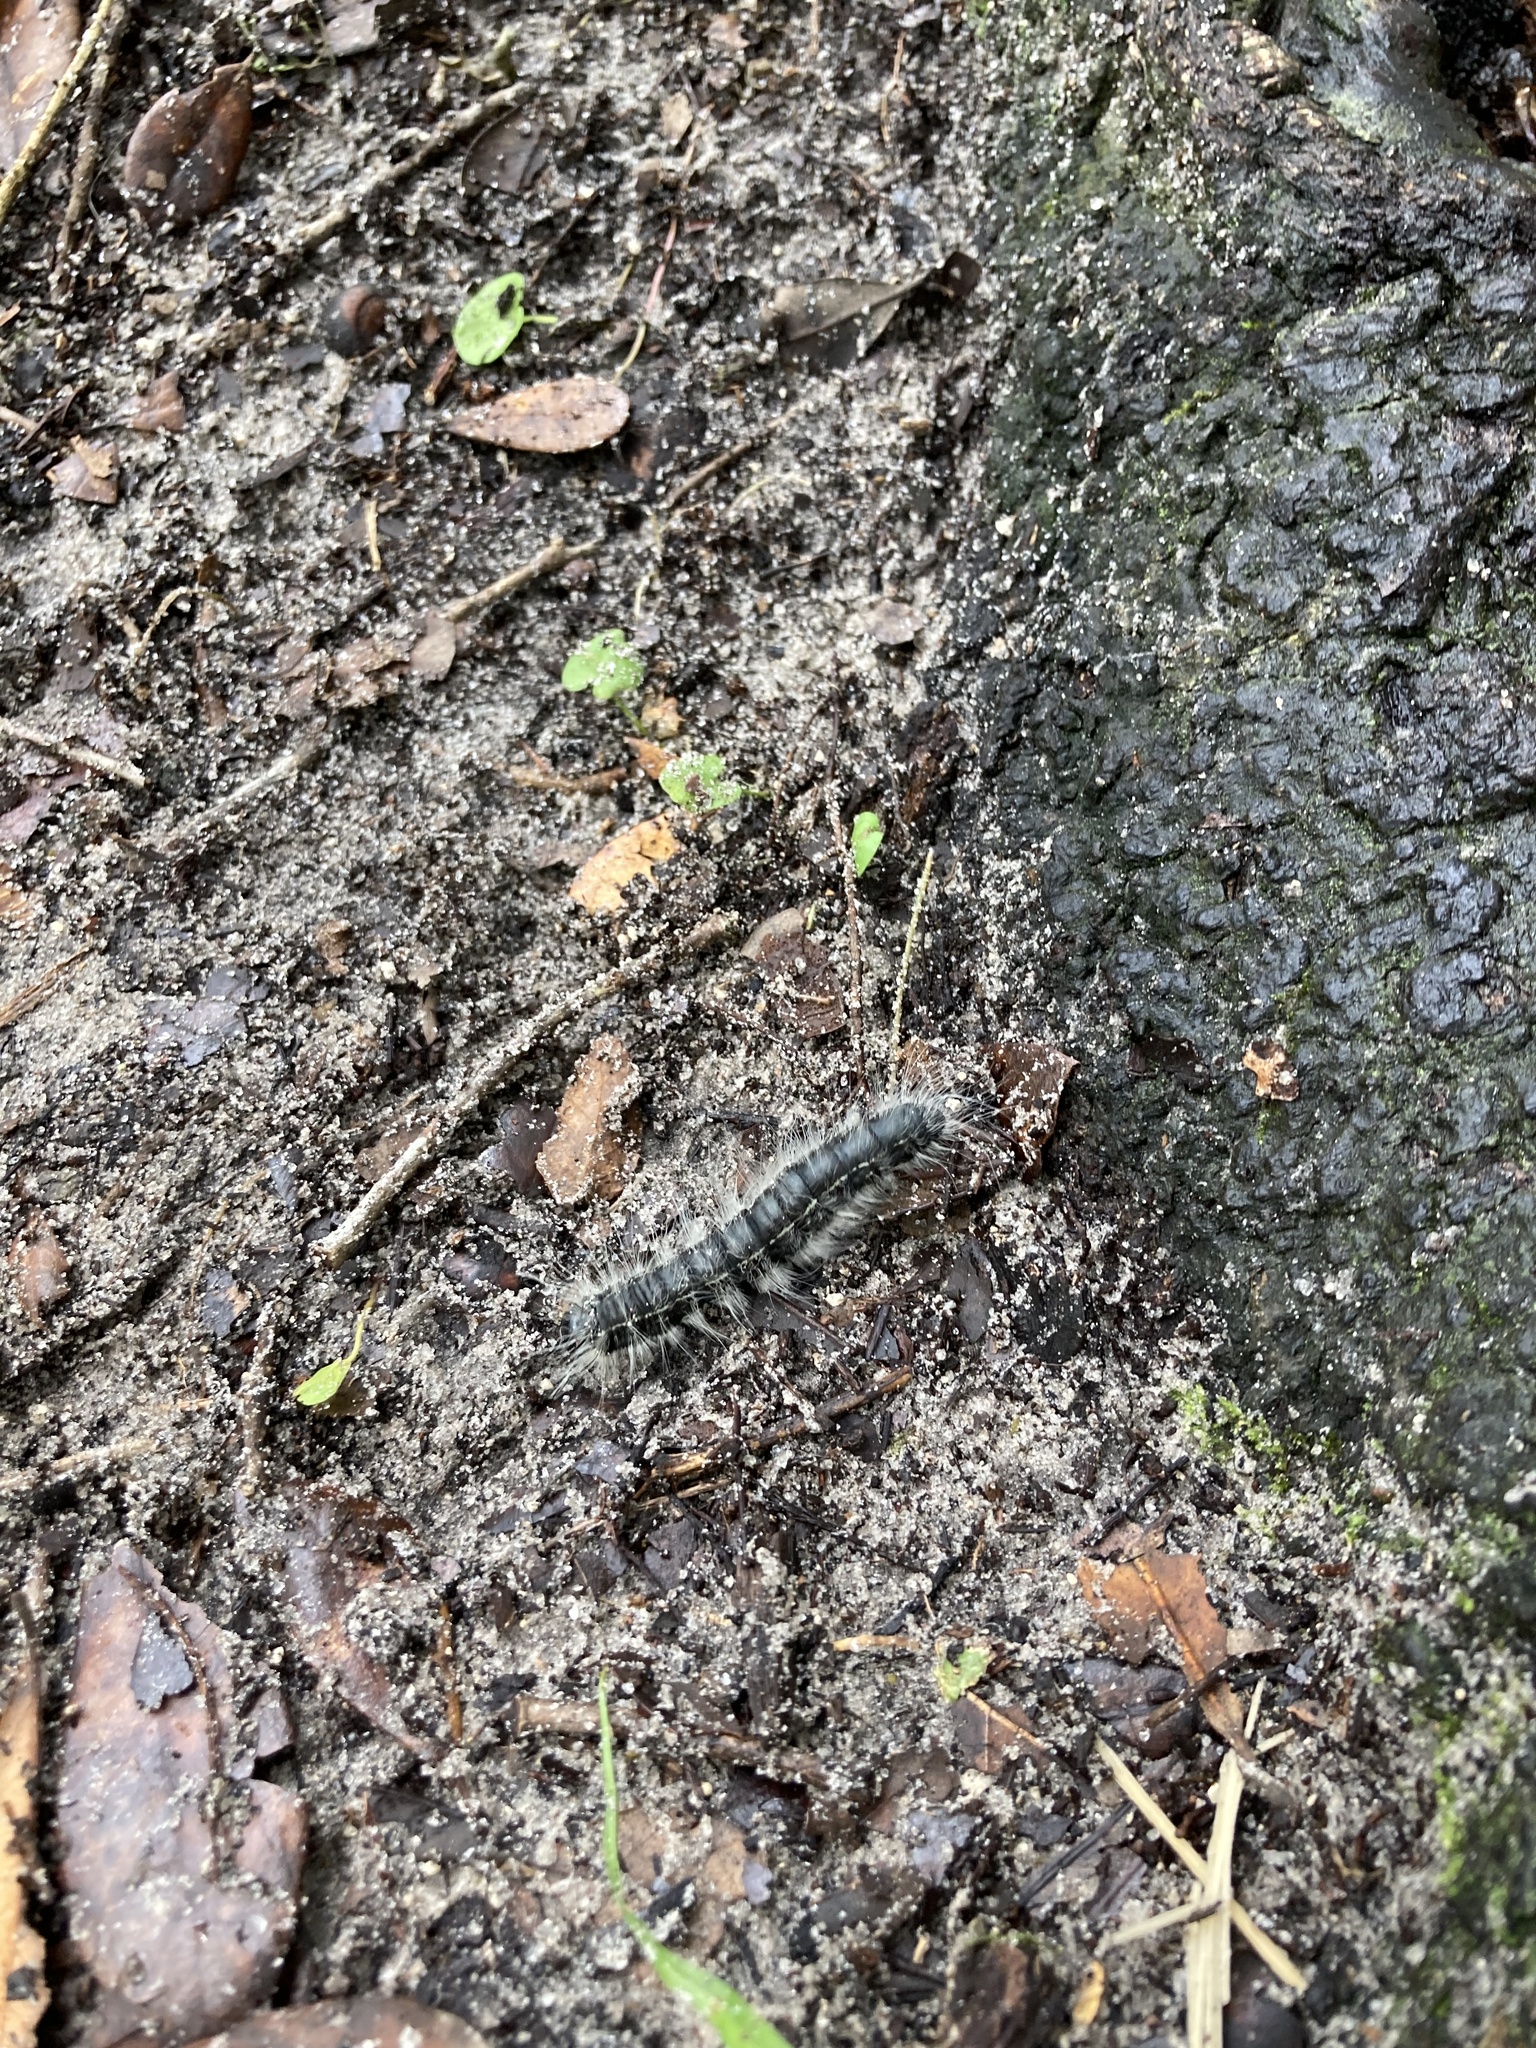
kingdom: Animalia
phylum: Arthropoda
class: Insecta
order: Lepidoptera
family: Notodontidae
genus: Datana
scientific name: Datana integerrima
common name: Walnut caterpillar
